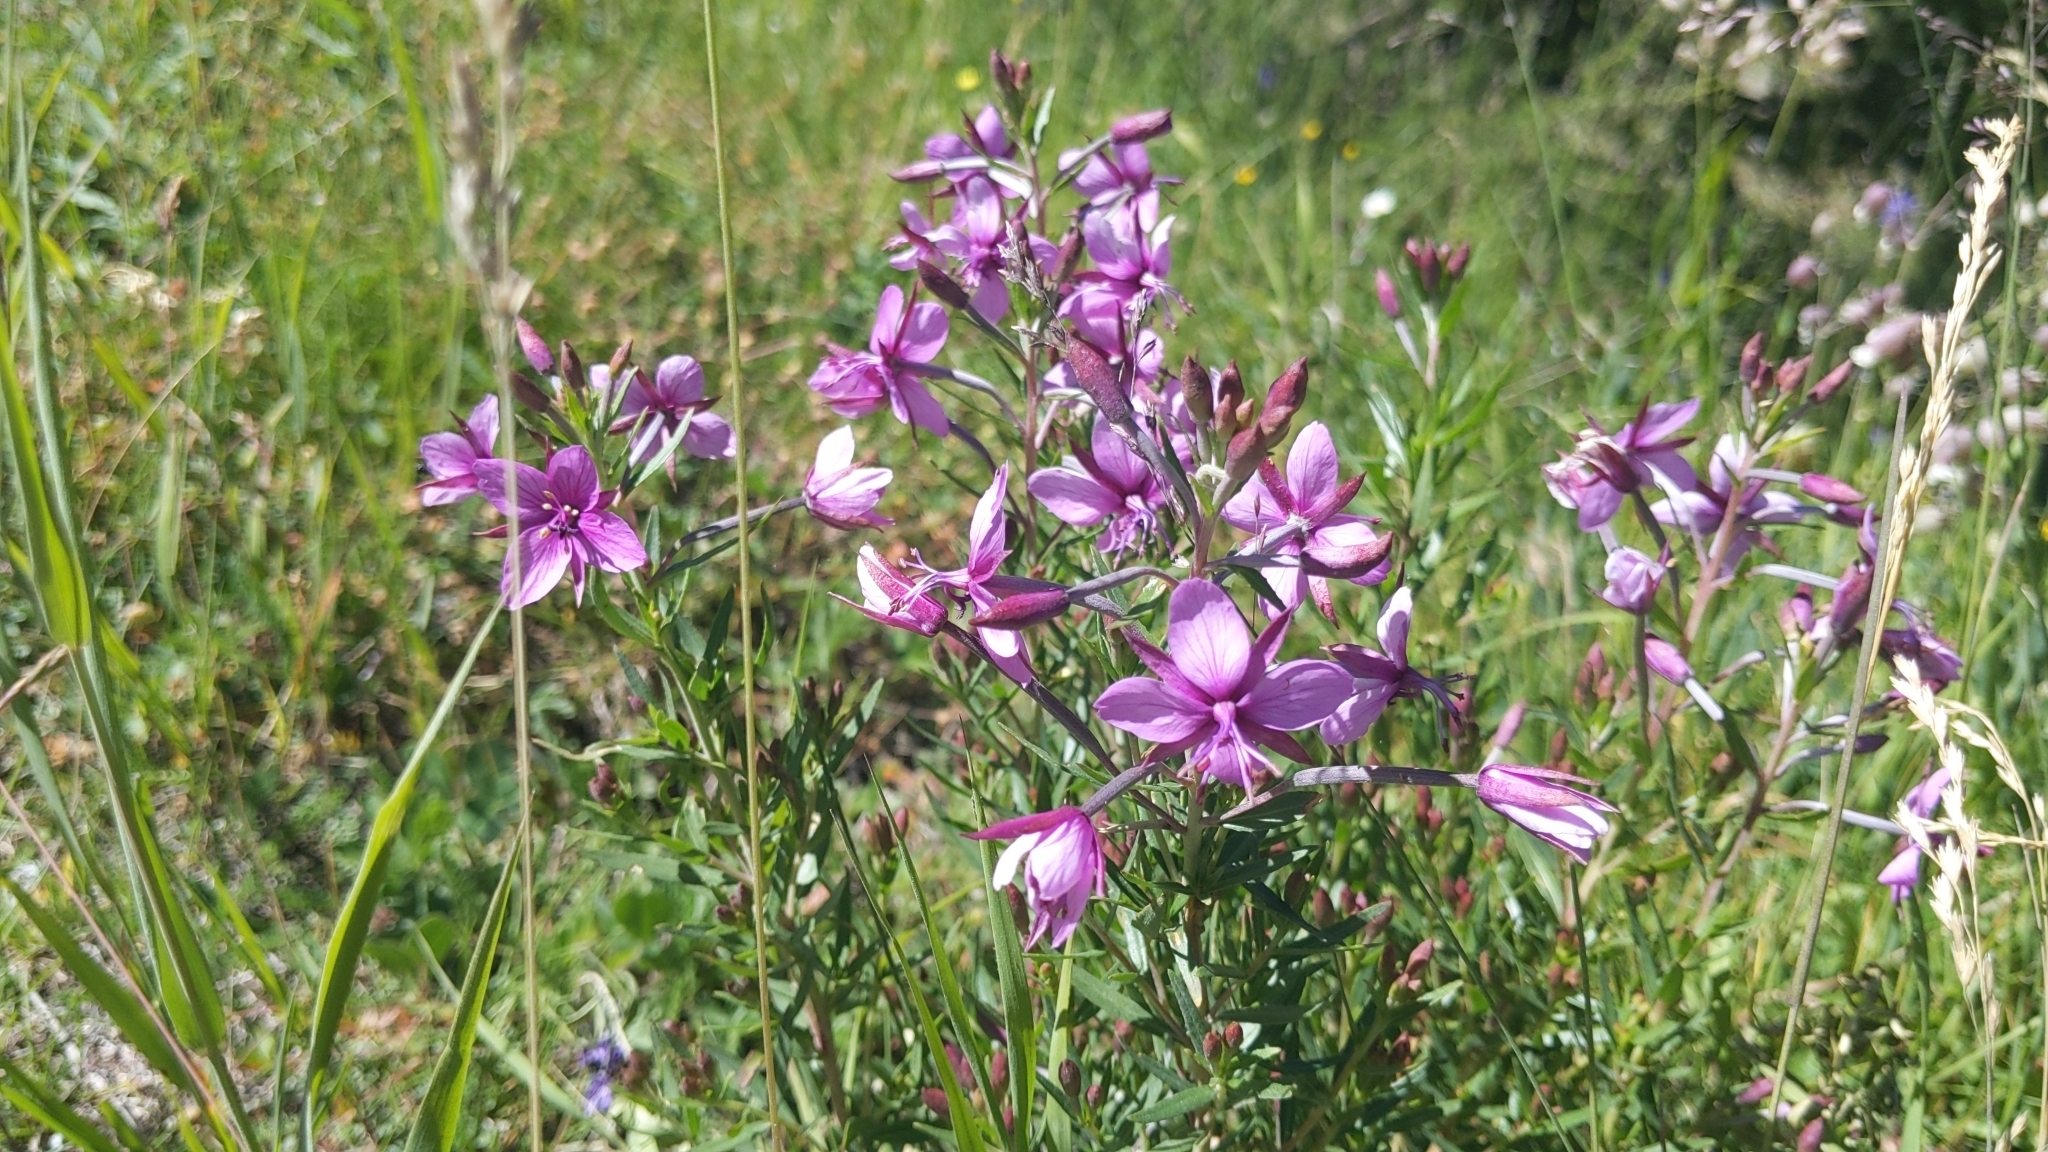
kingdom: Plantae
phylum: Tracheophyta
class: Magnoliopsida
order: Myrtales
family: Onagraceae
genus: Chamaenerion
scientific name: Chamaenerion dodonaei
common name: Rosemary-leaved willowherb
